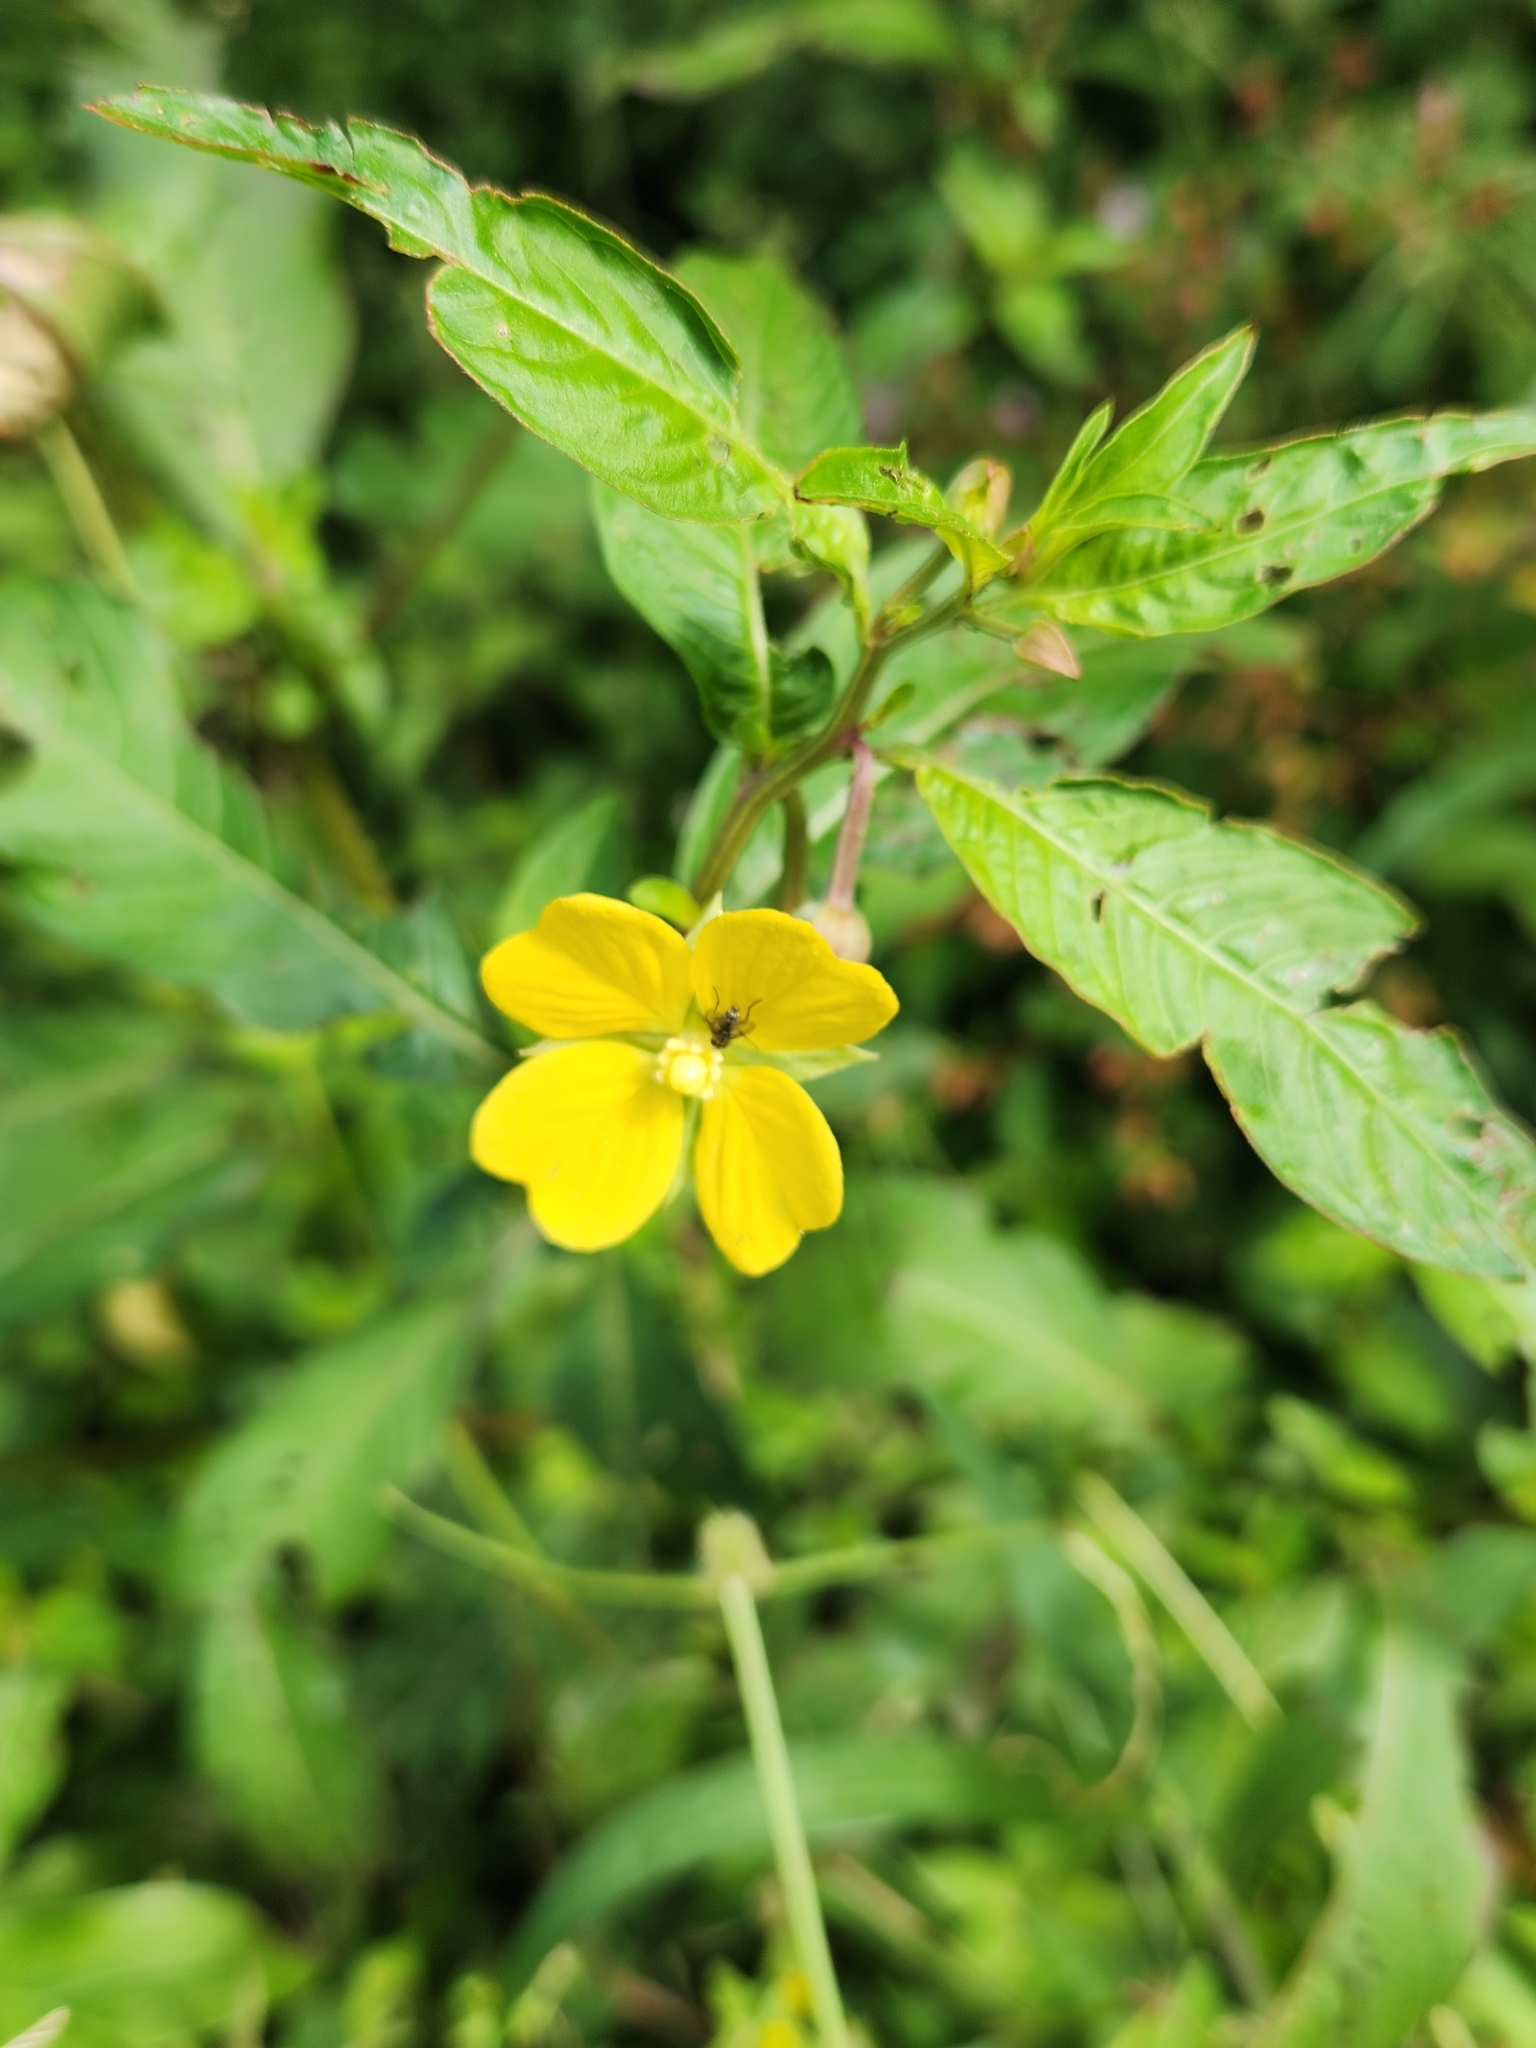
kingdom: Plantae
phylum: Tracheophyta
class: Magnoliopsida
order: Myrtales
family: Onagraceae
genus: Ludwigia
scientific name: Ludwigia octovalvis
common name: Water-primrose
